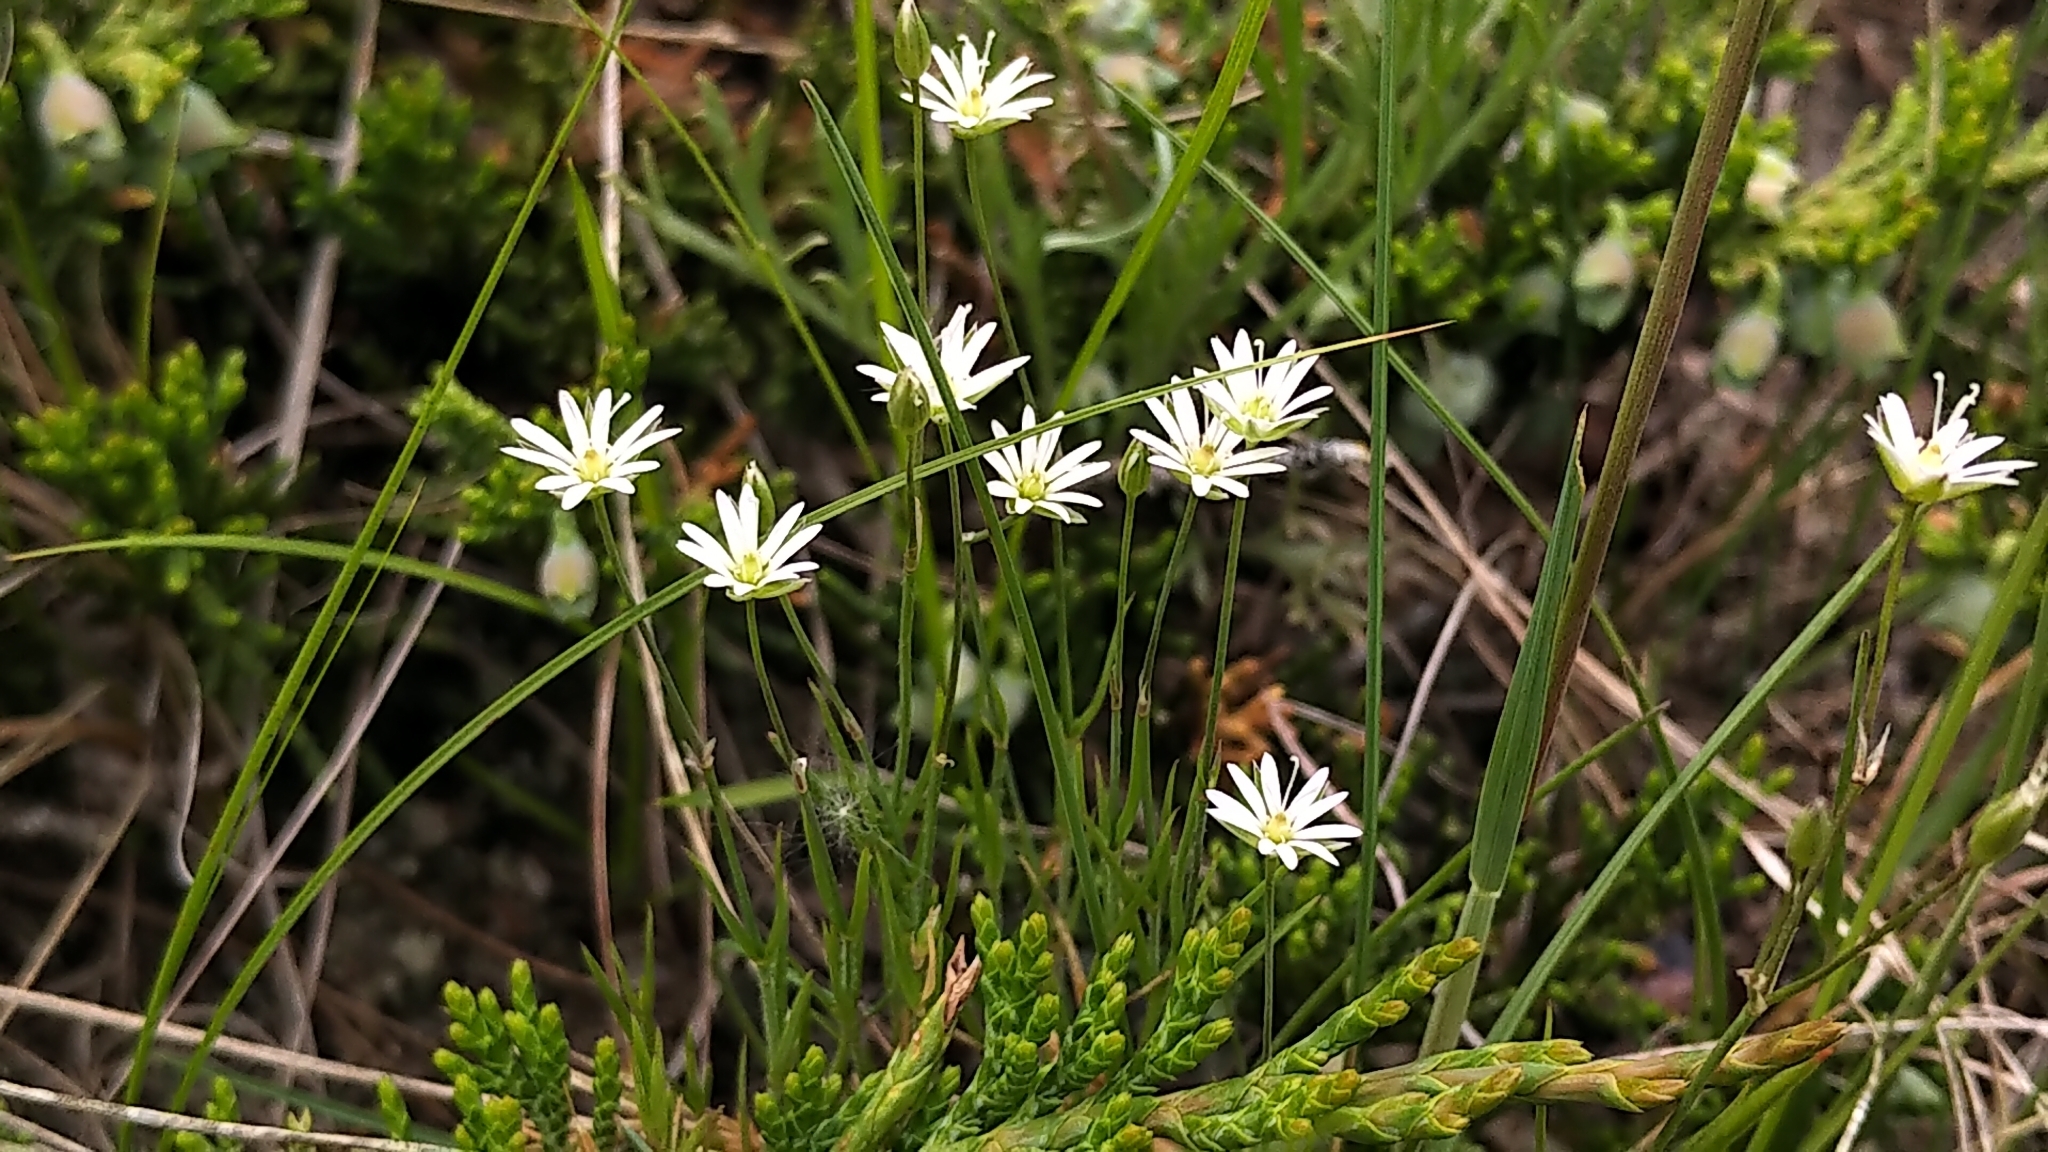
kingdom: Plantae
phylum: Tracheophyta
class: Magnoliopsida
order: Caryophyllales
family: Caryophyllaceae
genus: Stellaria
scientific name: Stellaria longifolia
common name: Long-leaved chickweed
